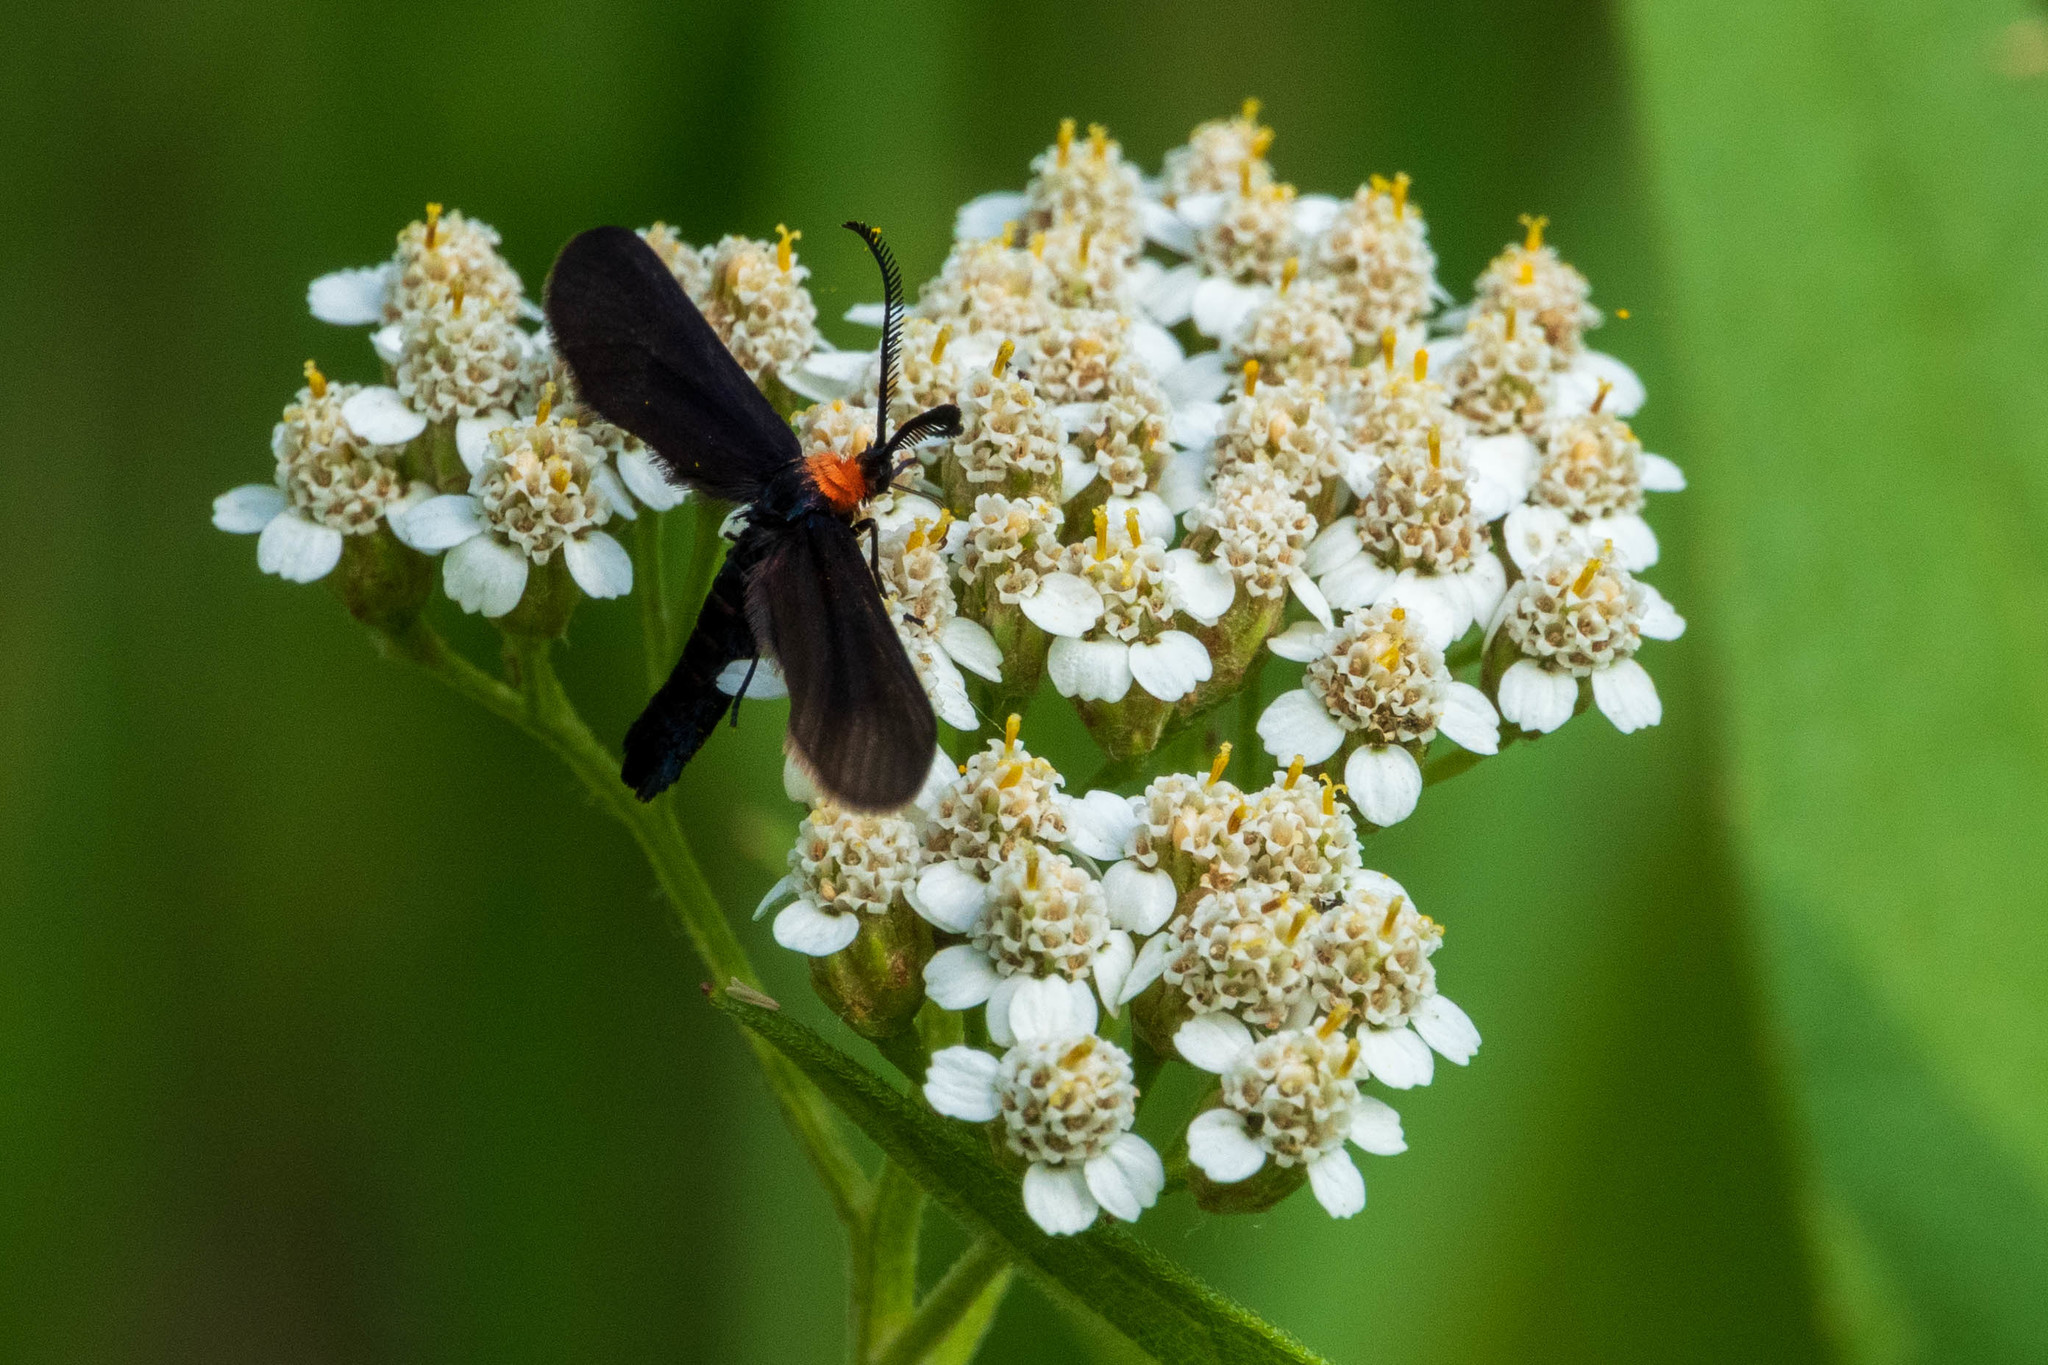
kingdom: Animalia
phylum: Arthropoda
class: Insecta
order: Lepidoptera
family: Zygaenidae
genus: Harrisina
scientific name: Harrisina americana
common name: Grapeleaf skeletonizer moth
